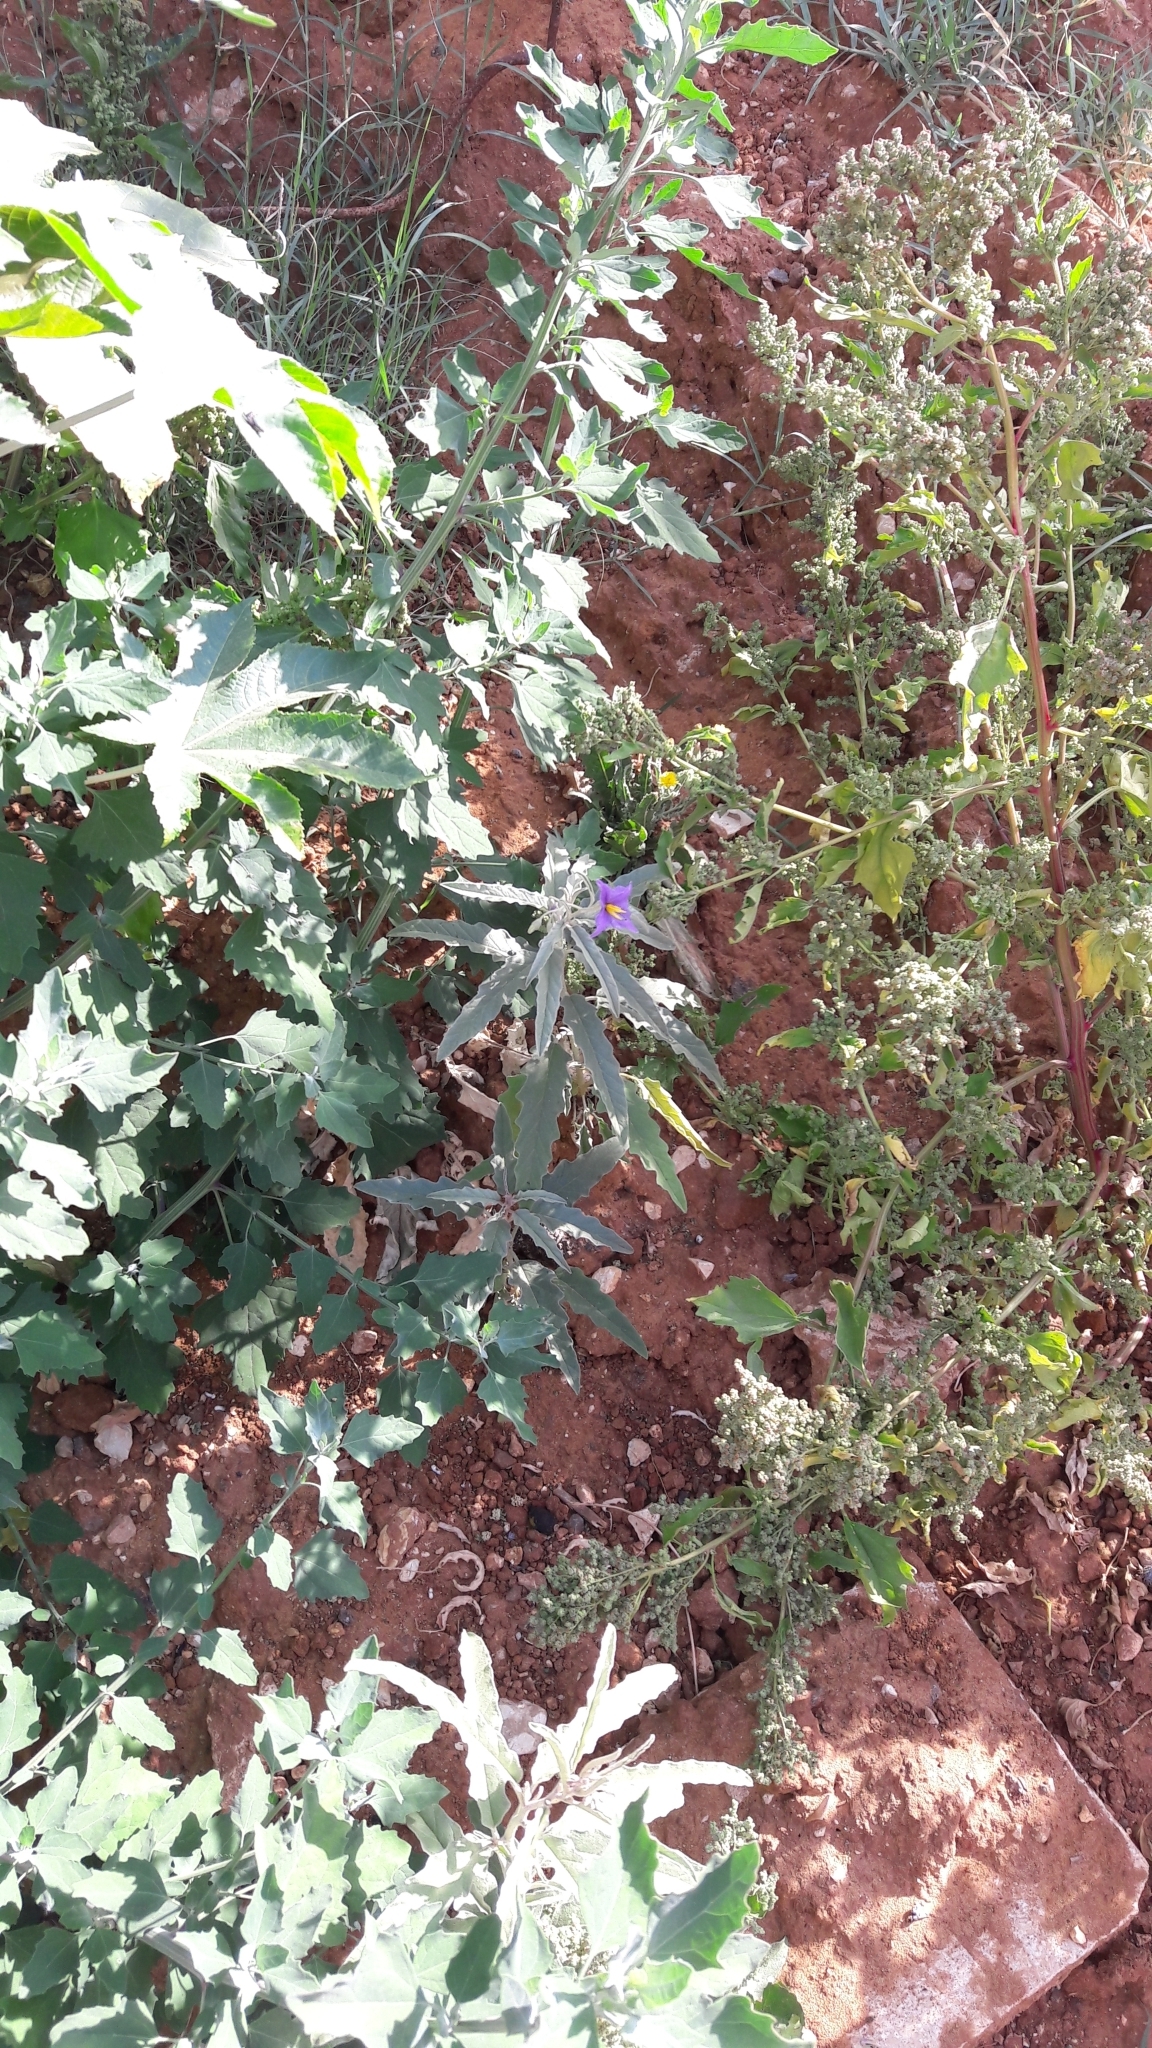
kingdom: Plantae
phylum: Tracheophyta
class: Magnoliopsida
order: Solanales
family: Solanaceae
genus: Solanum
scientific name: Solanum elaeagnifolium
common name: Silverleaf nightshade
